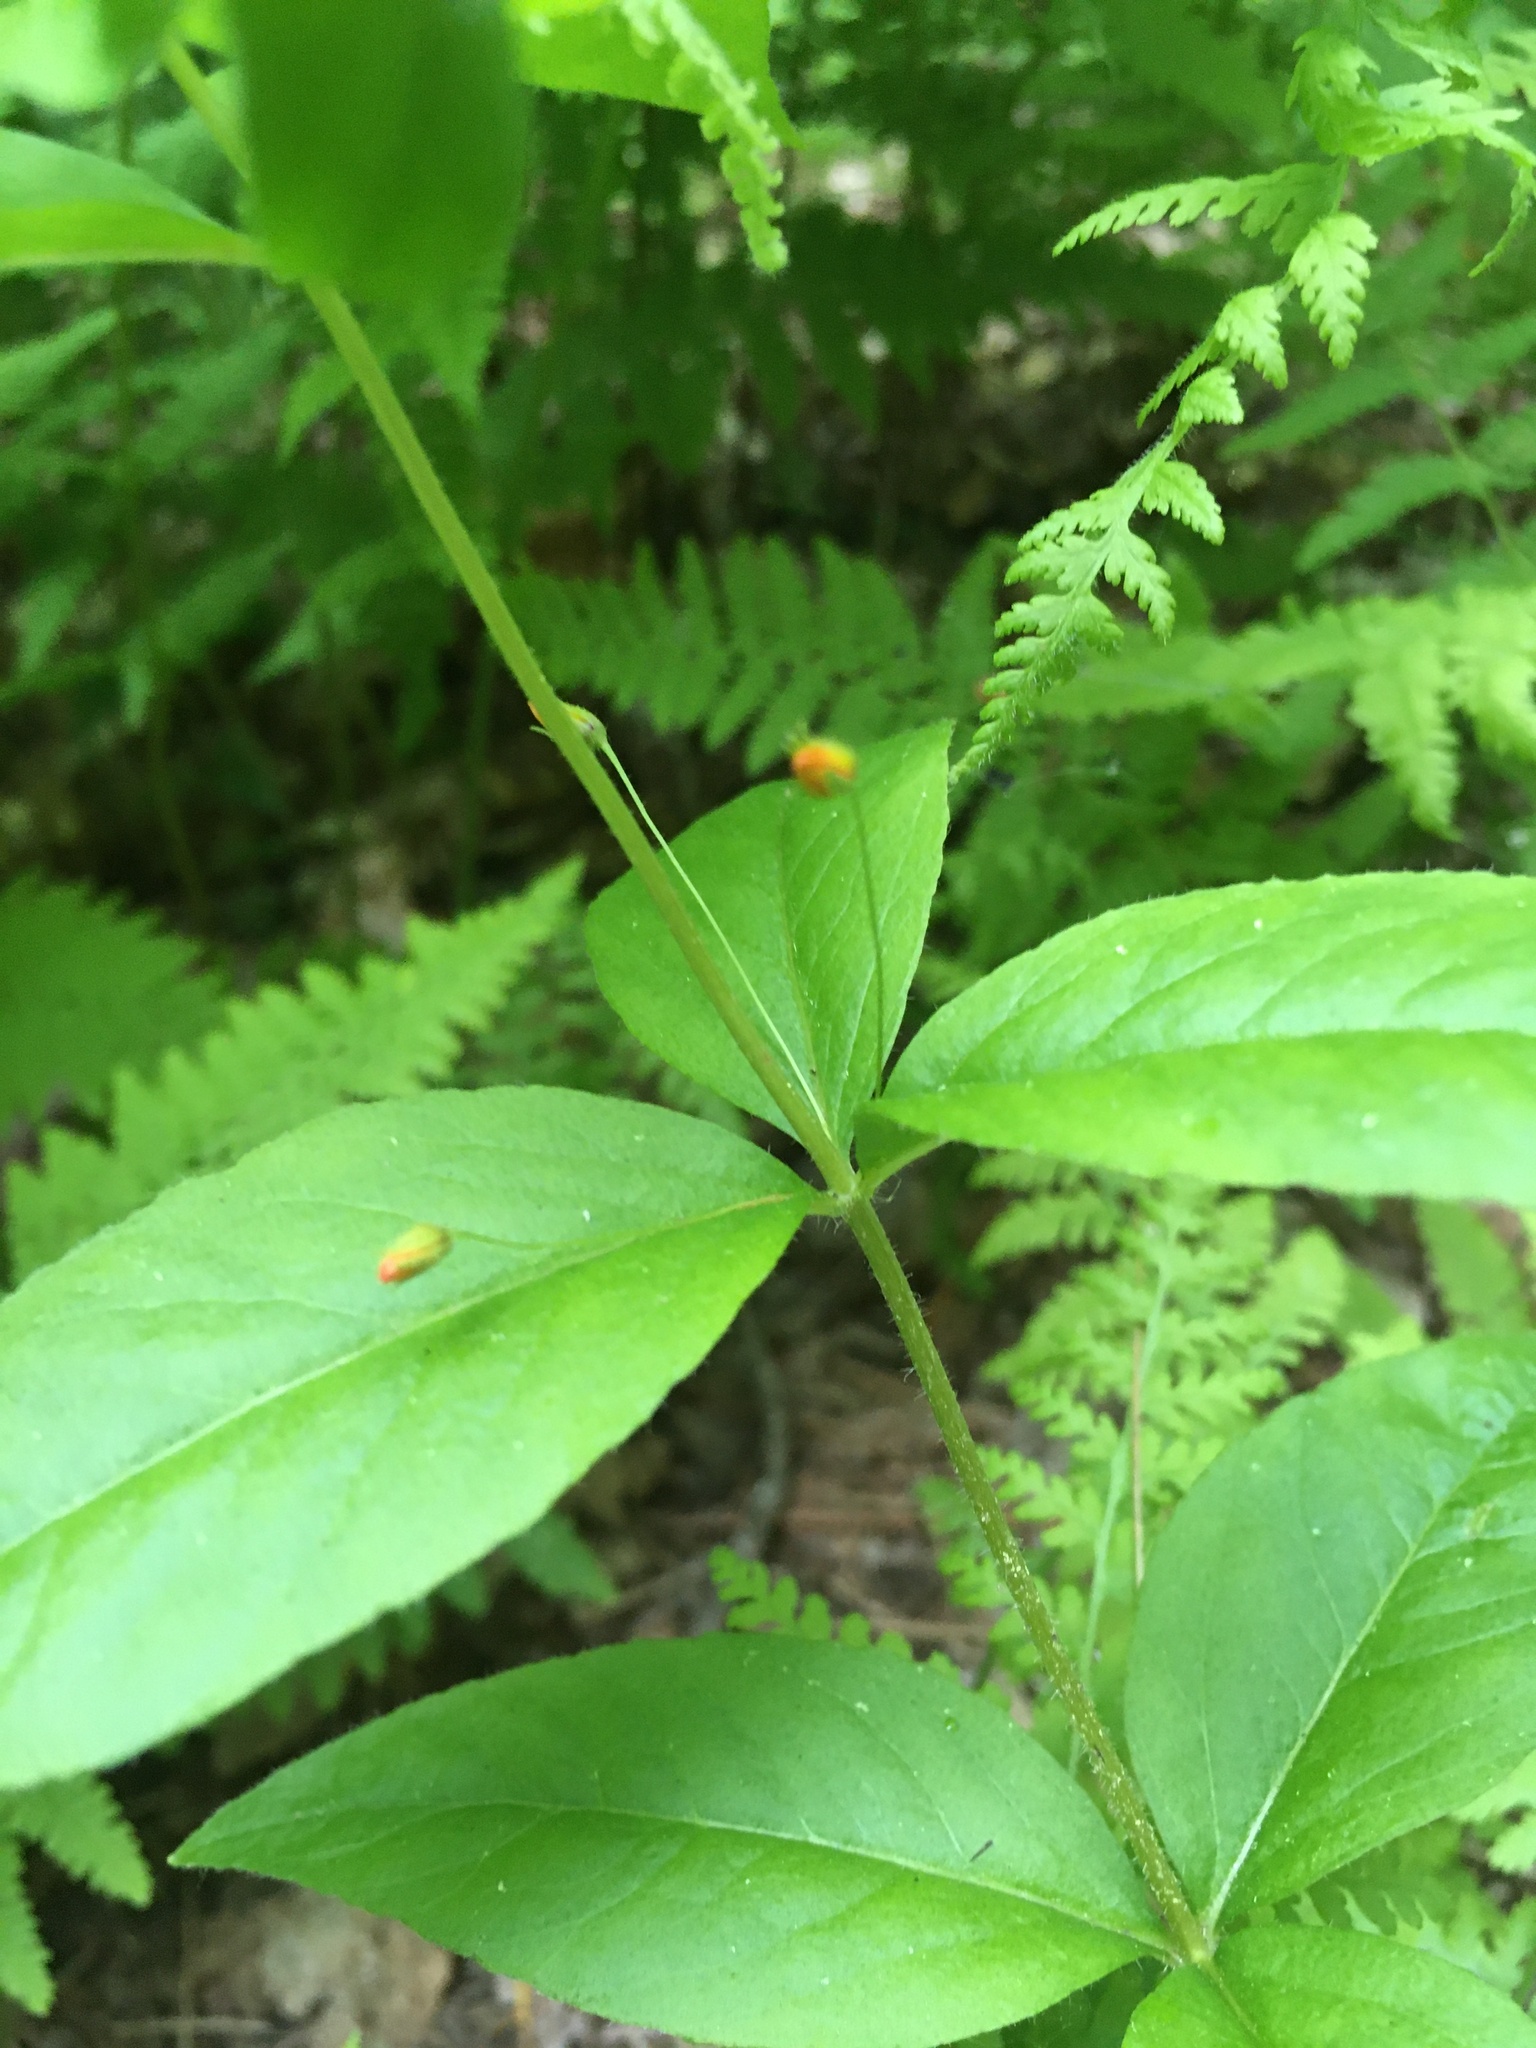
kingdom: Plantae
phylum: Tracheophyta
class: Magnoliopsida
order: Ericales
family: Primulaceae
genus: Lysimachia
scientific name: Lysimachia quadrifolia
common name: Whorled loosestrife
